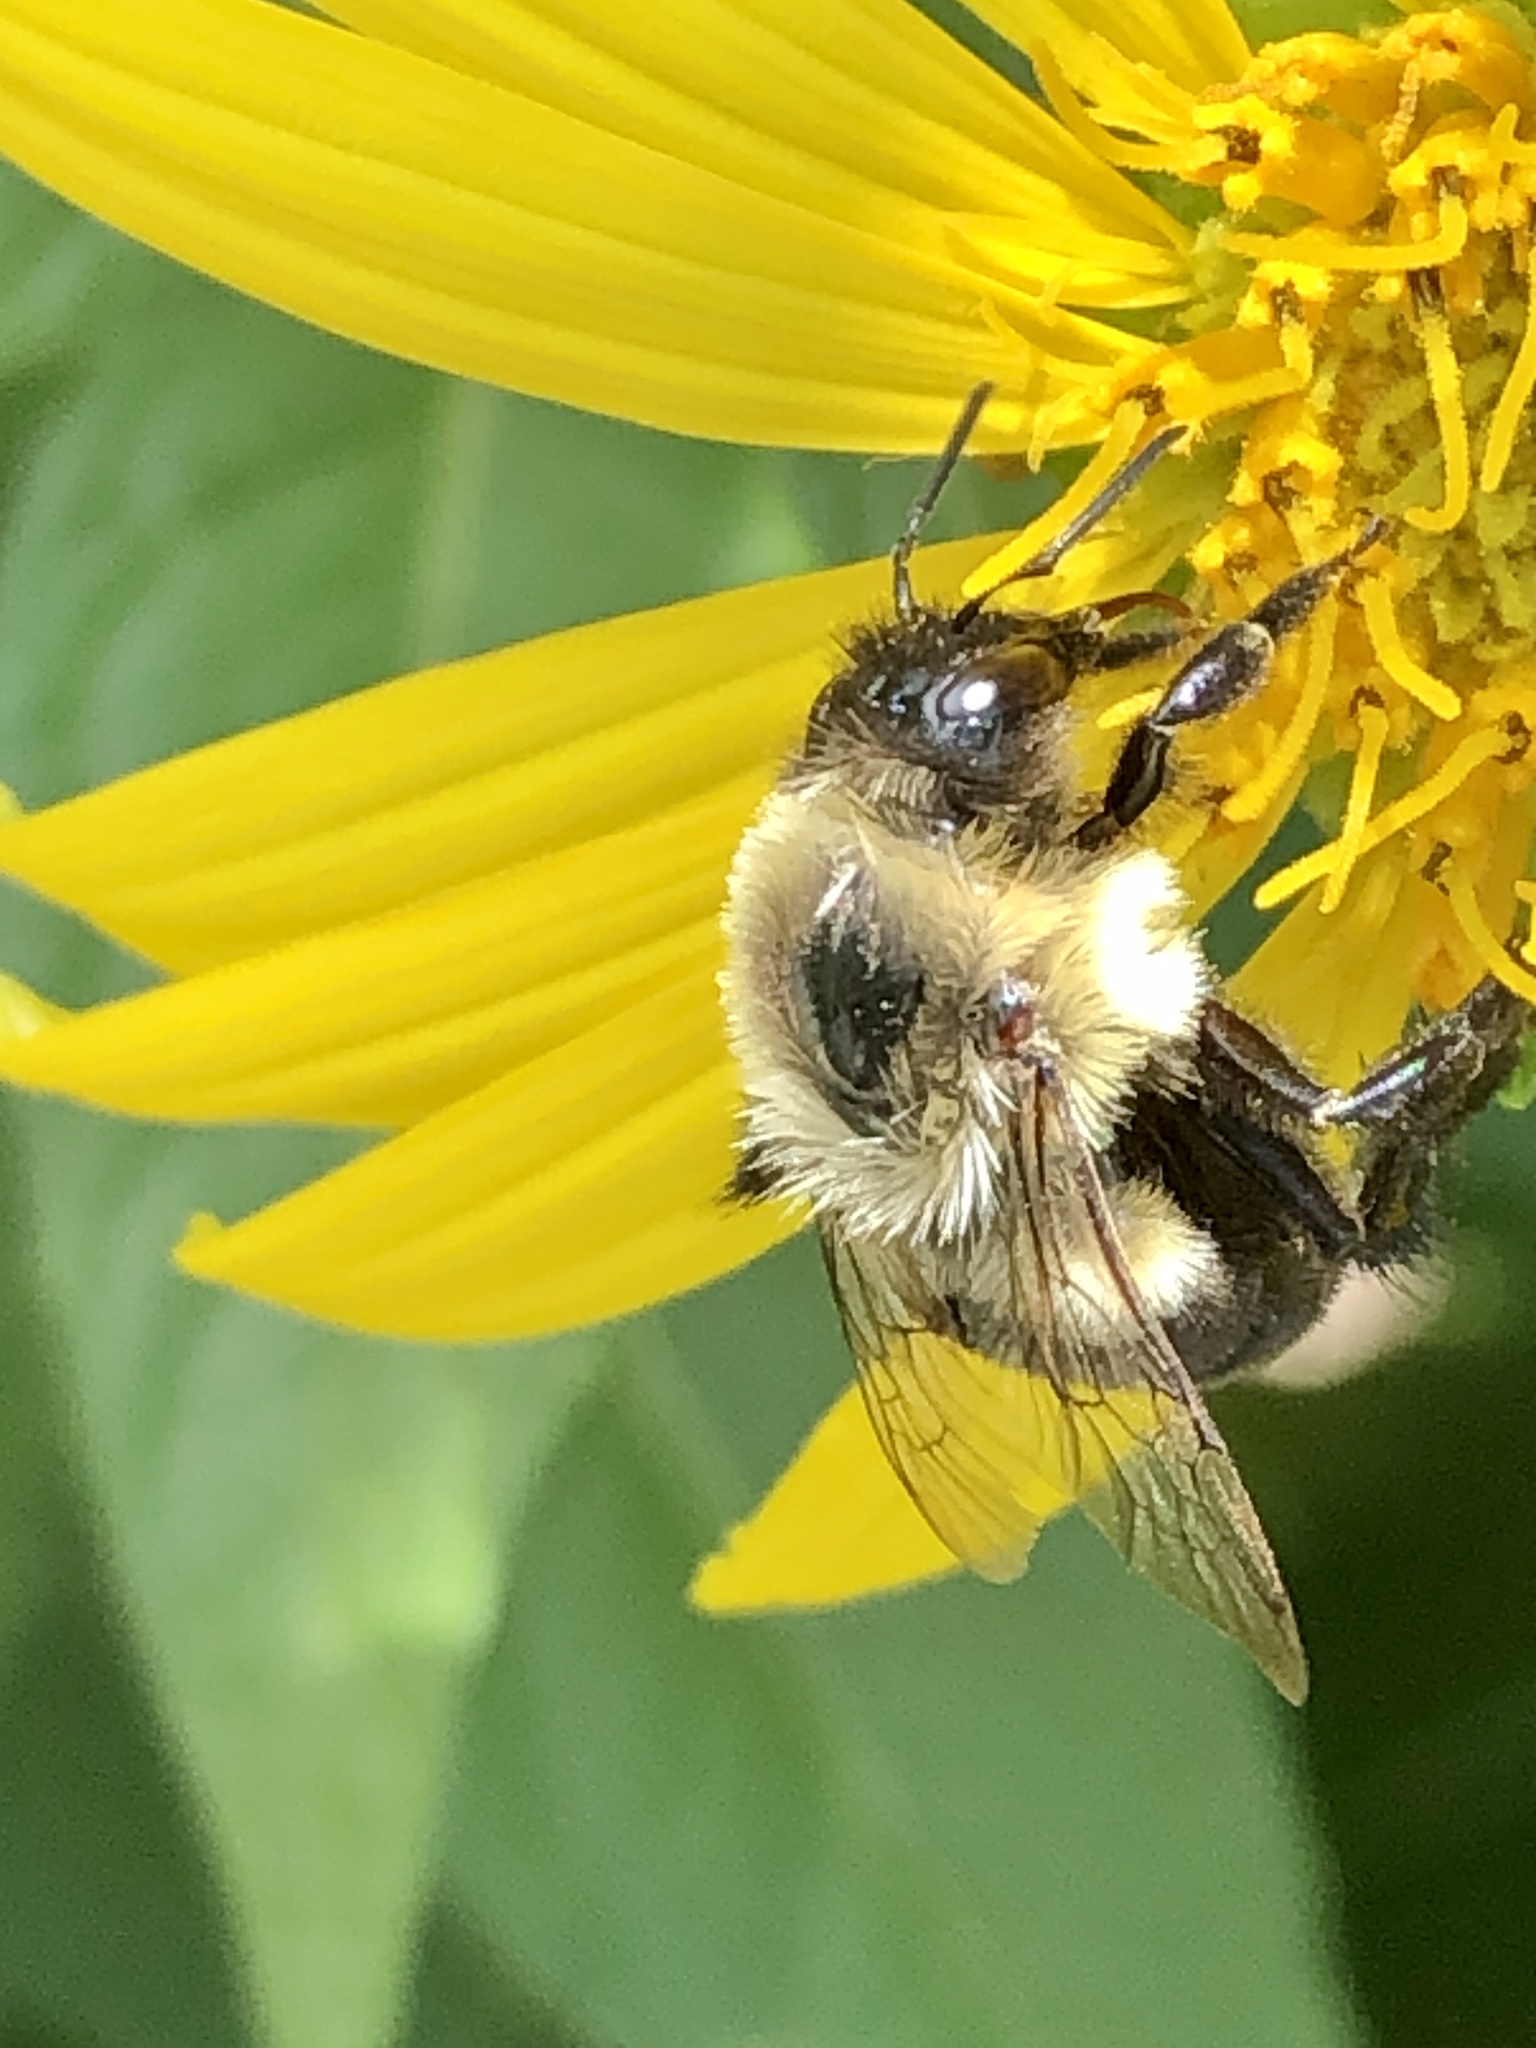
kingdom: Animalia
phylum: Arthropoda
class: Insecta
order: Hymenoptera
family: Apidae
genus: Bombus
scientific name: Bombus impatiens
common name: Common eastern bumble bee
